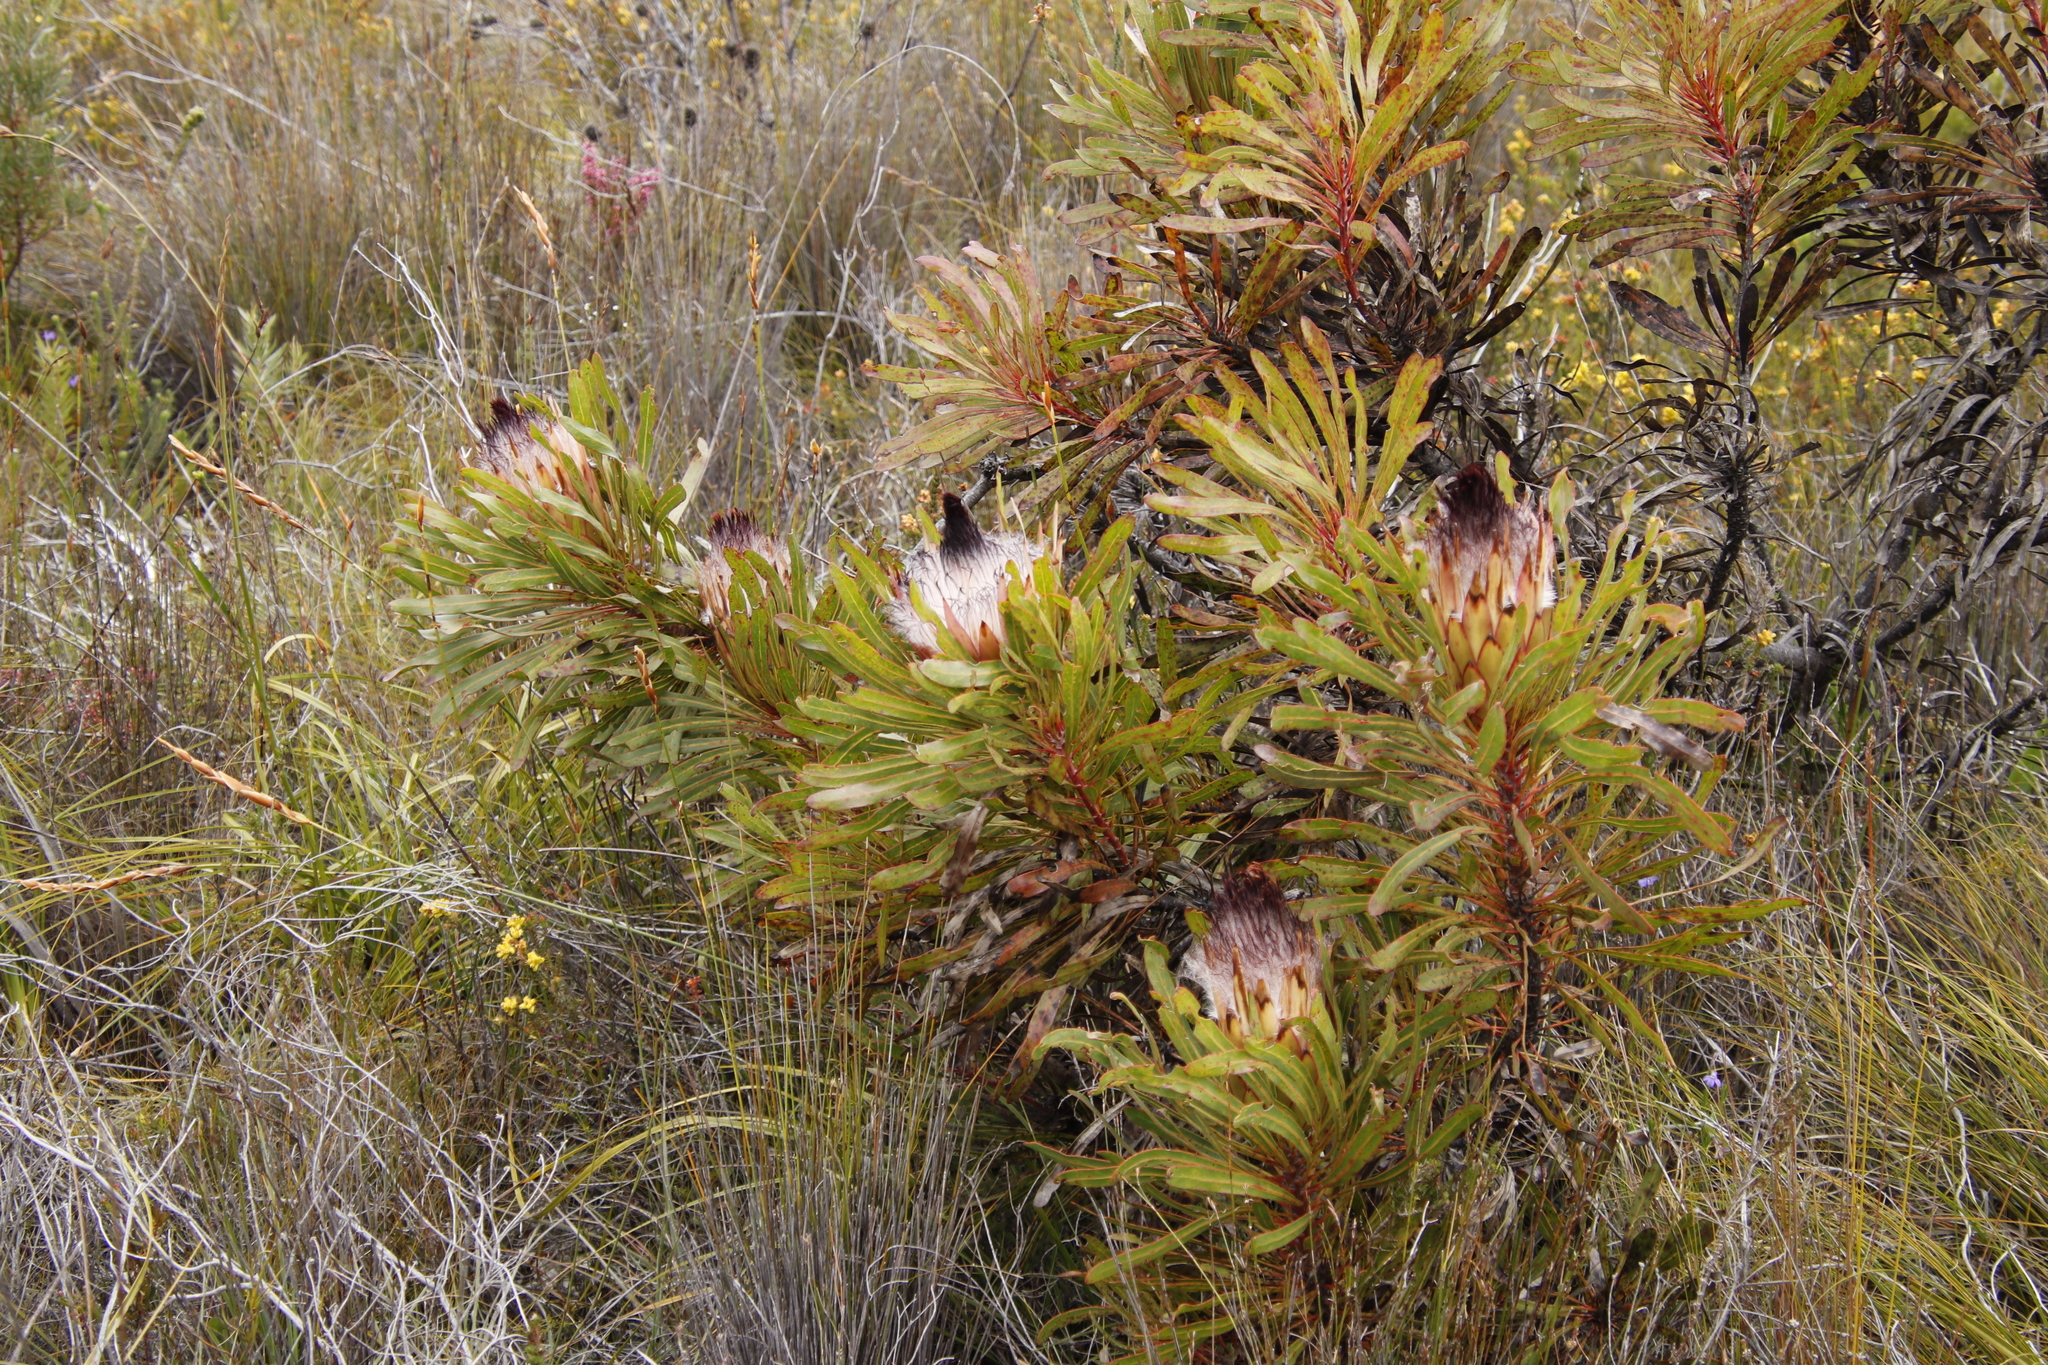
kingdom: Plantae
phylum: Tracheophyta
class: Magnoliopsida
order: Proteales
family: Proteaceae
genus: Protea
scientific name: Protea longifolia
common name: Long-leaf sugarbush
